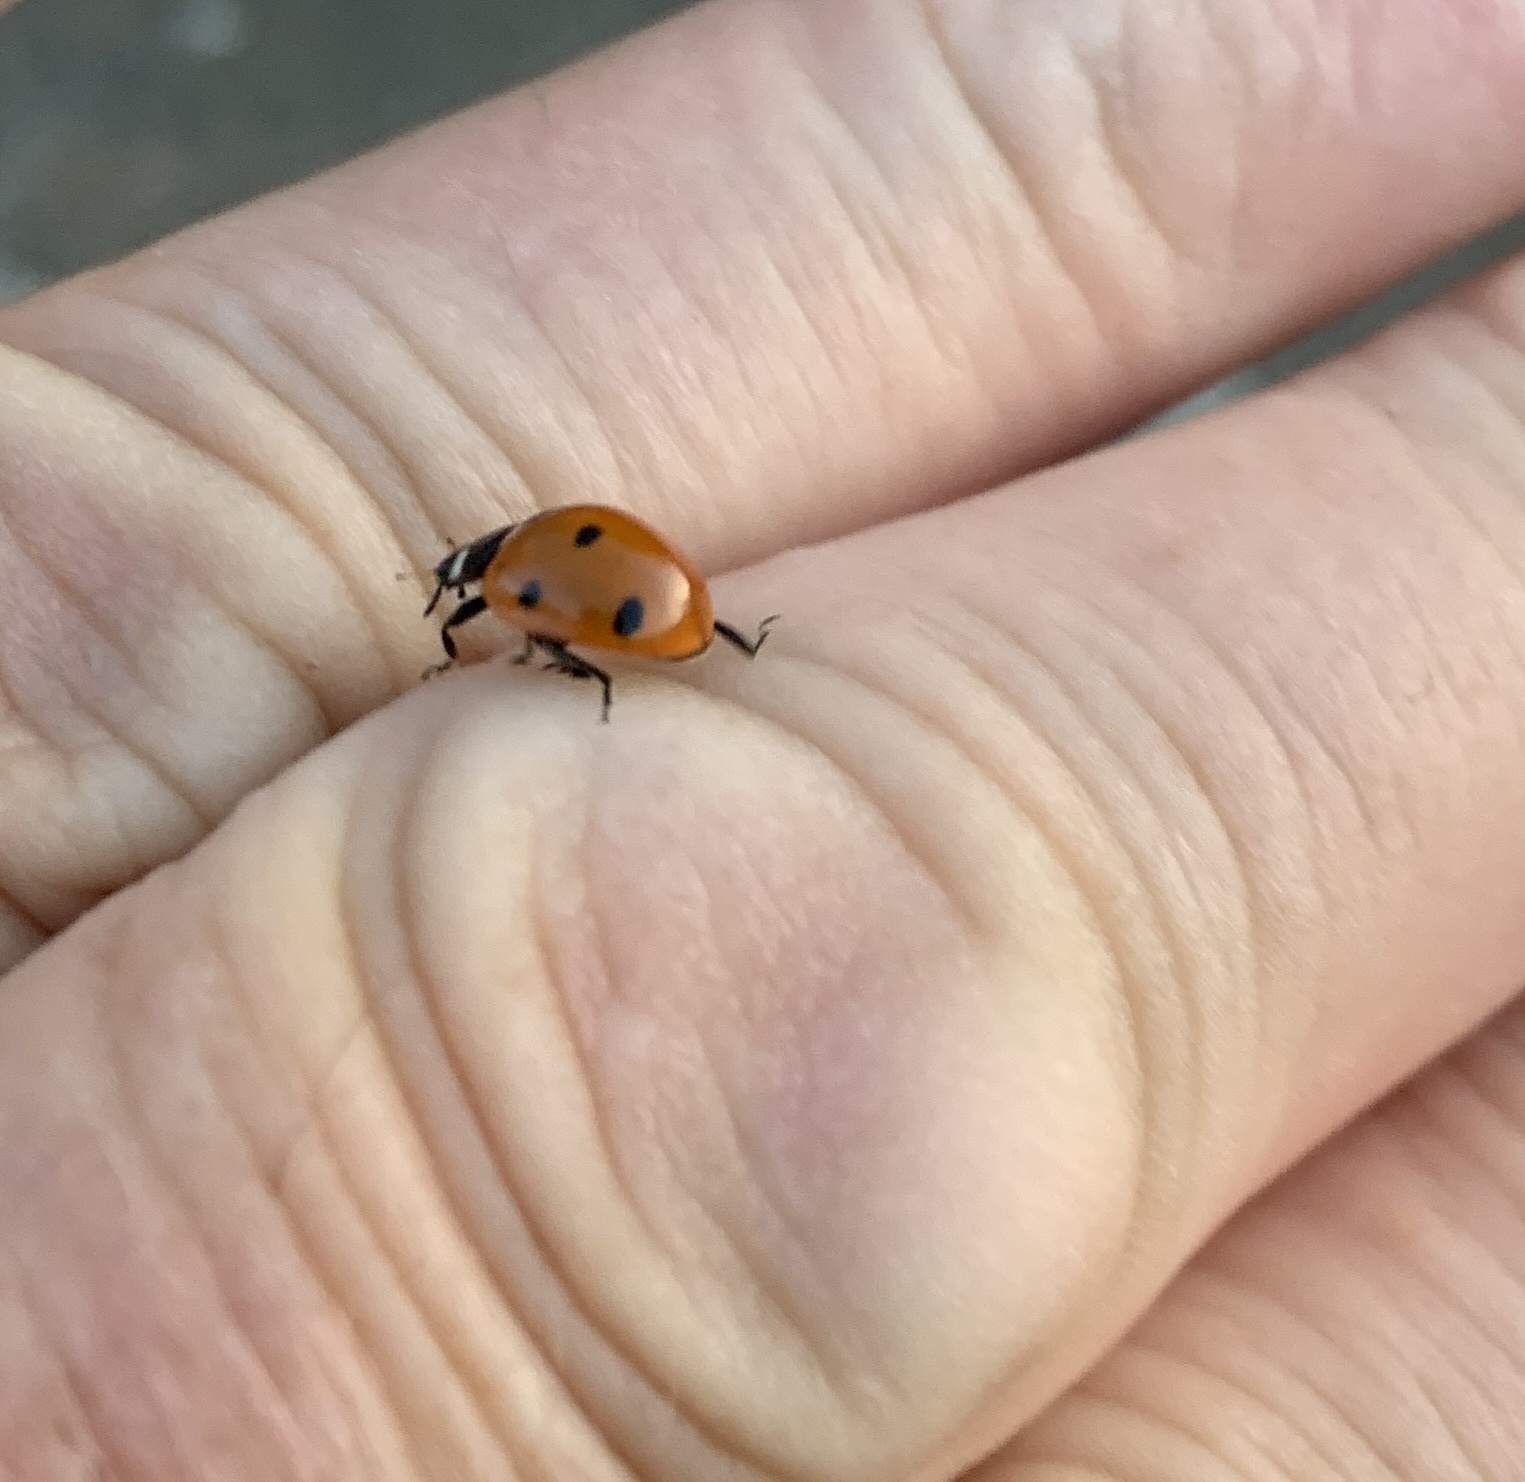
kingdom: Animalia
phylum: Arthropoda
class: Insecta
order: Coleoptera
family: Coccinellidae
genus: Coccinella
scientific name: Coccinella septempunctata
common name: Sevenspotted lady beetle
